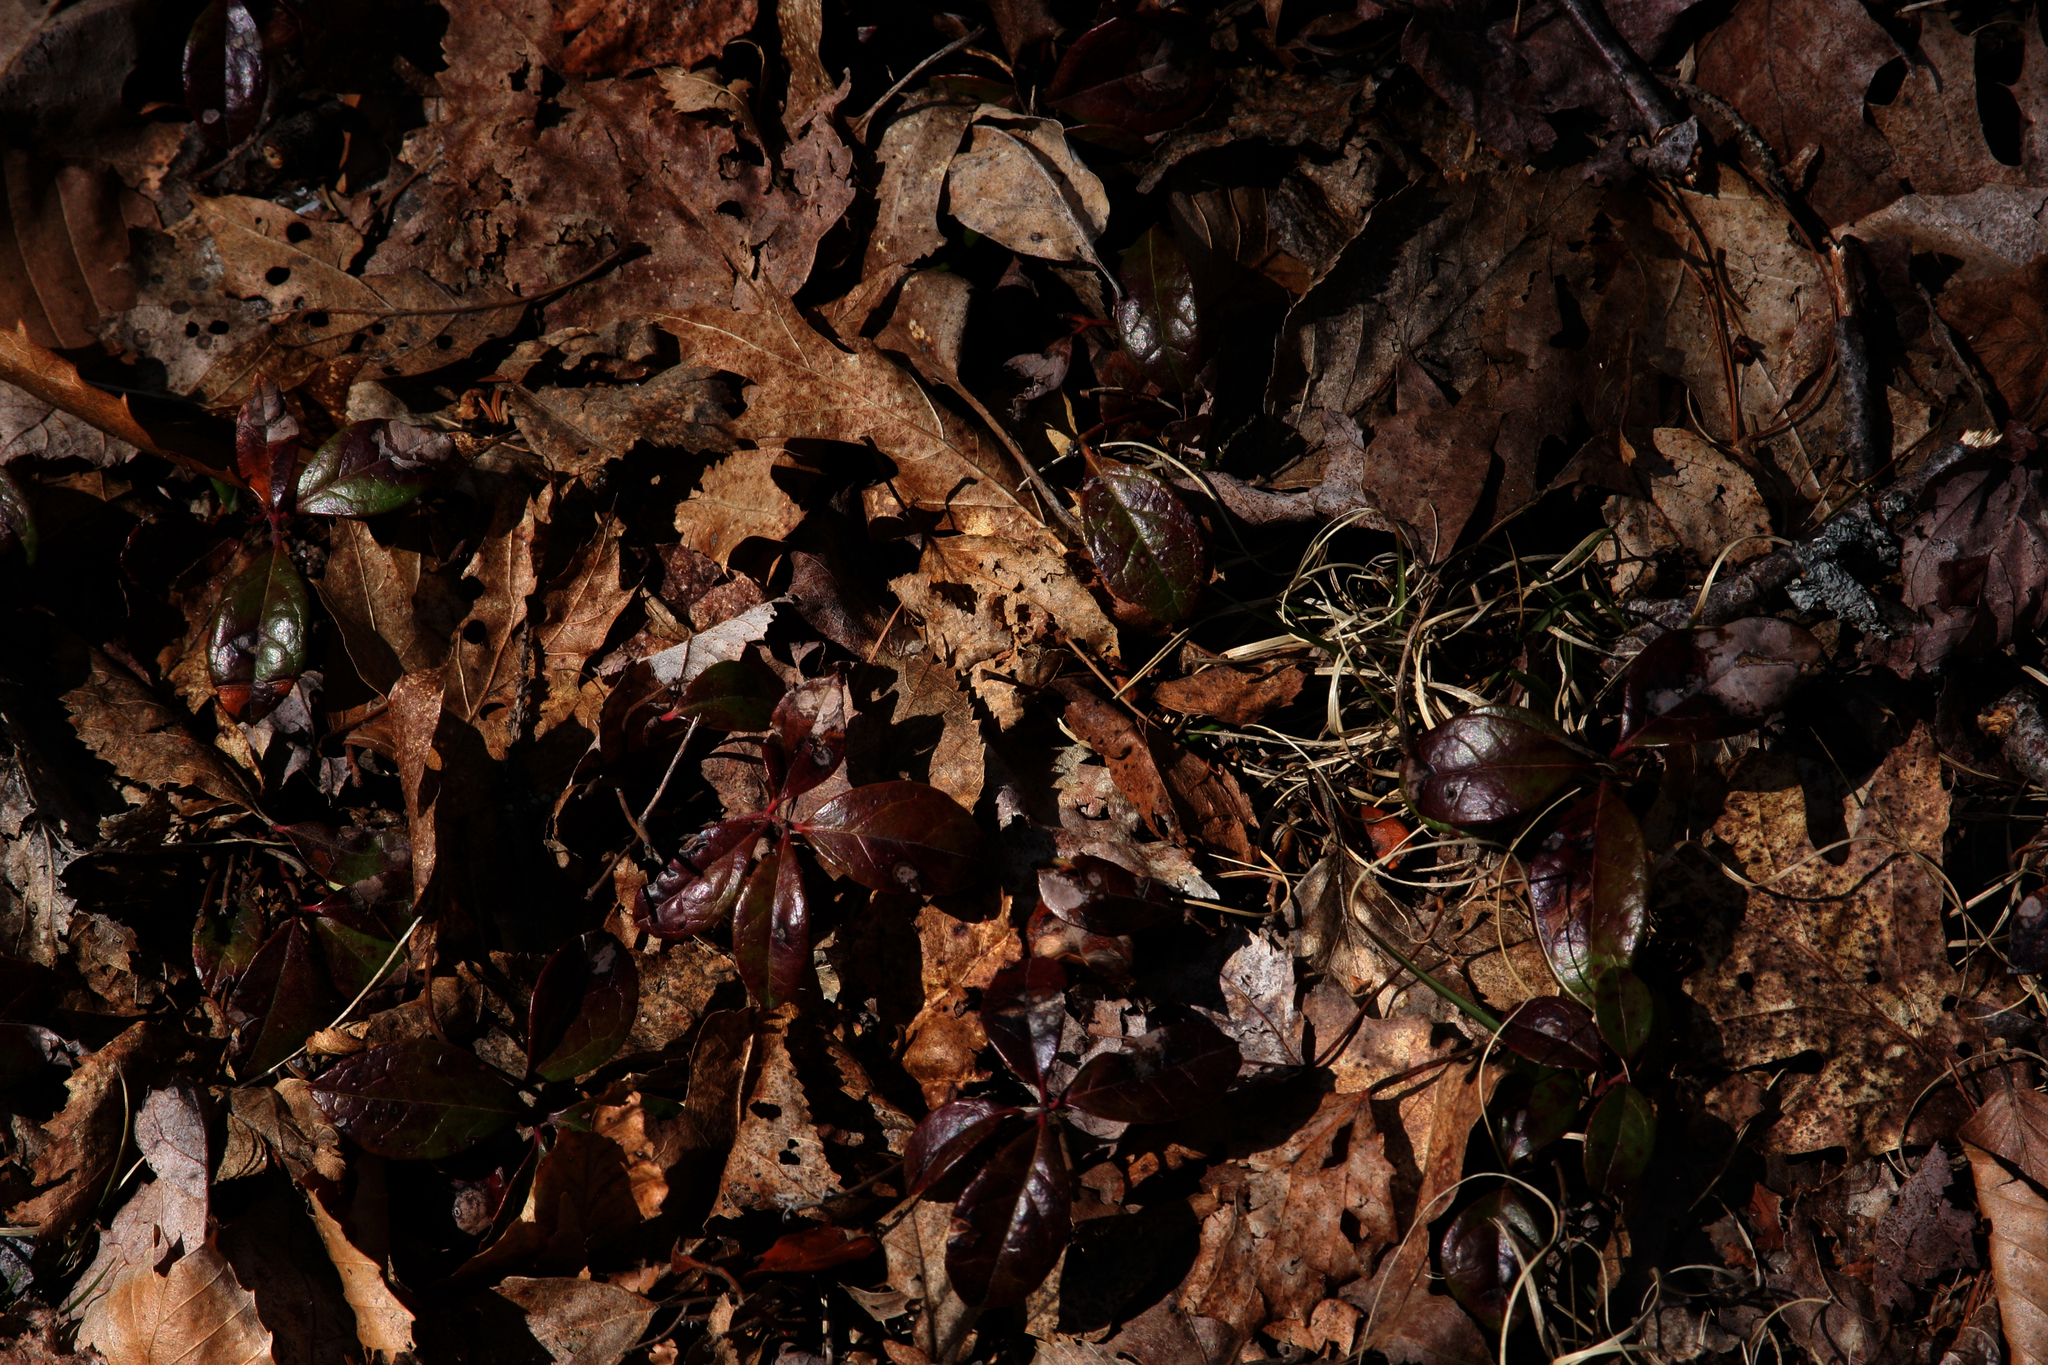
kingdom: Plantae
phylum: Tracheophyta
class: Magnoliopsida
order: Ericales
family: Ericaceae
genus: Gaultheria
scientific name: Gaultheria procumbens
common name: Checkerberry
